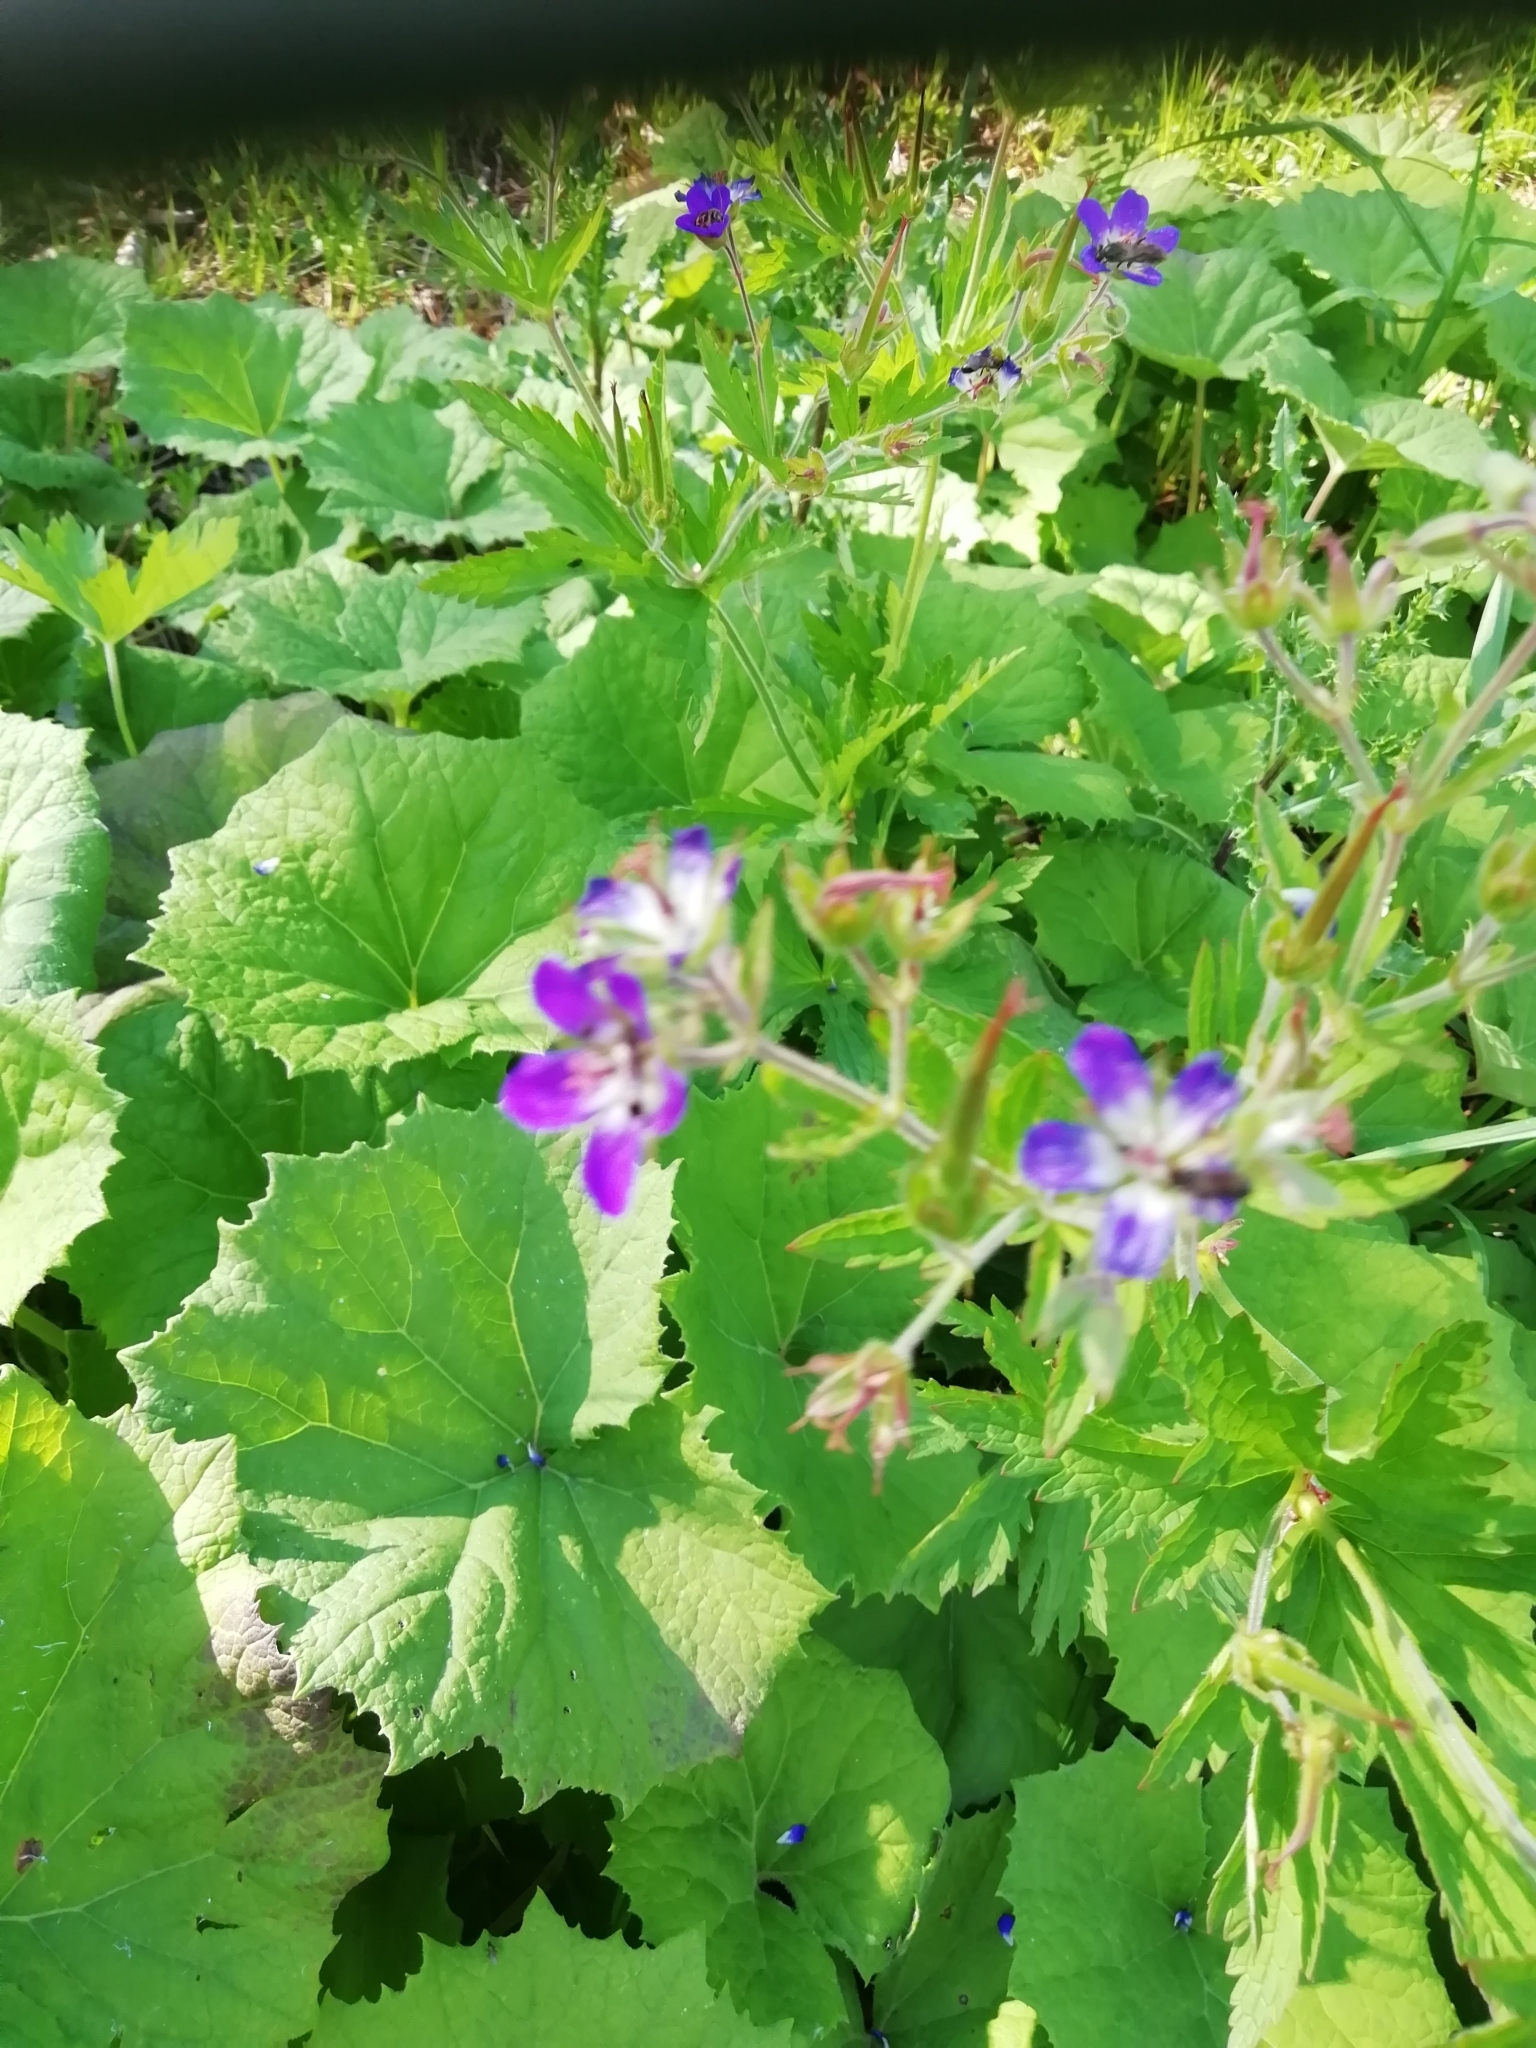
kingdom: Plantae
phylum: Tracheophyta
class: Magnoliopsida
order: Geraniales
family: Geraniaceae
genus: Geranium
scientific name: Geranium sylvaticum
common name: Wood crane's-bill
